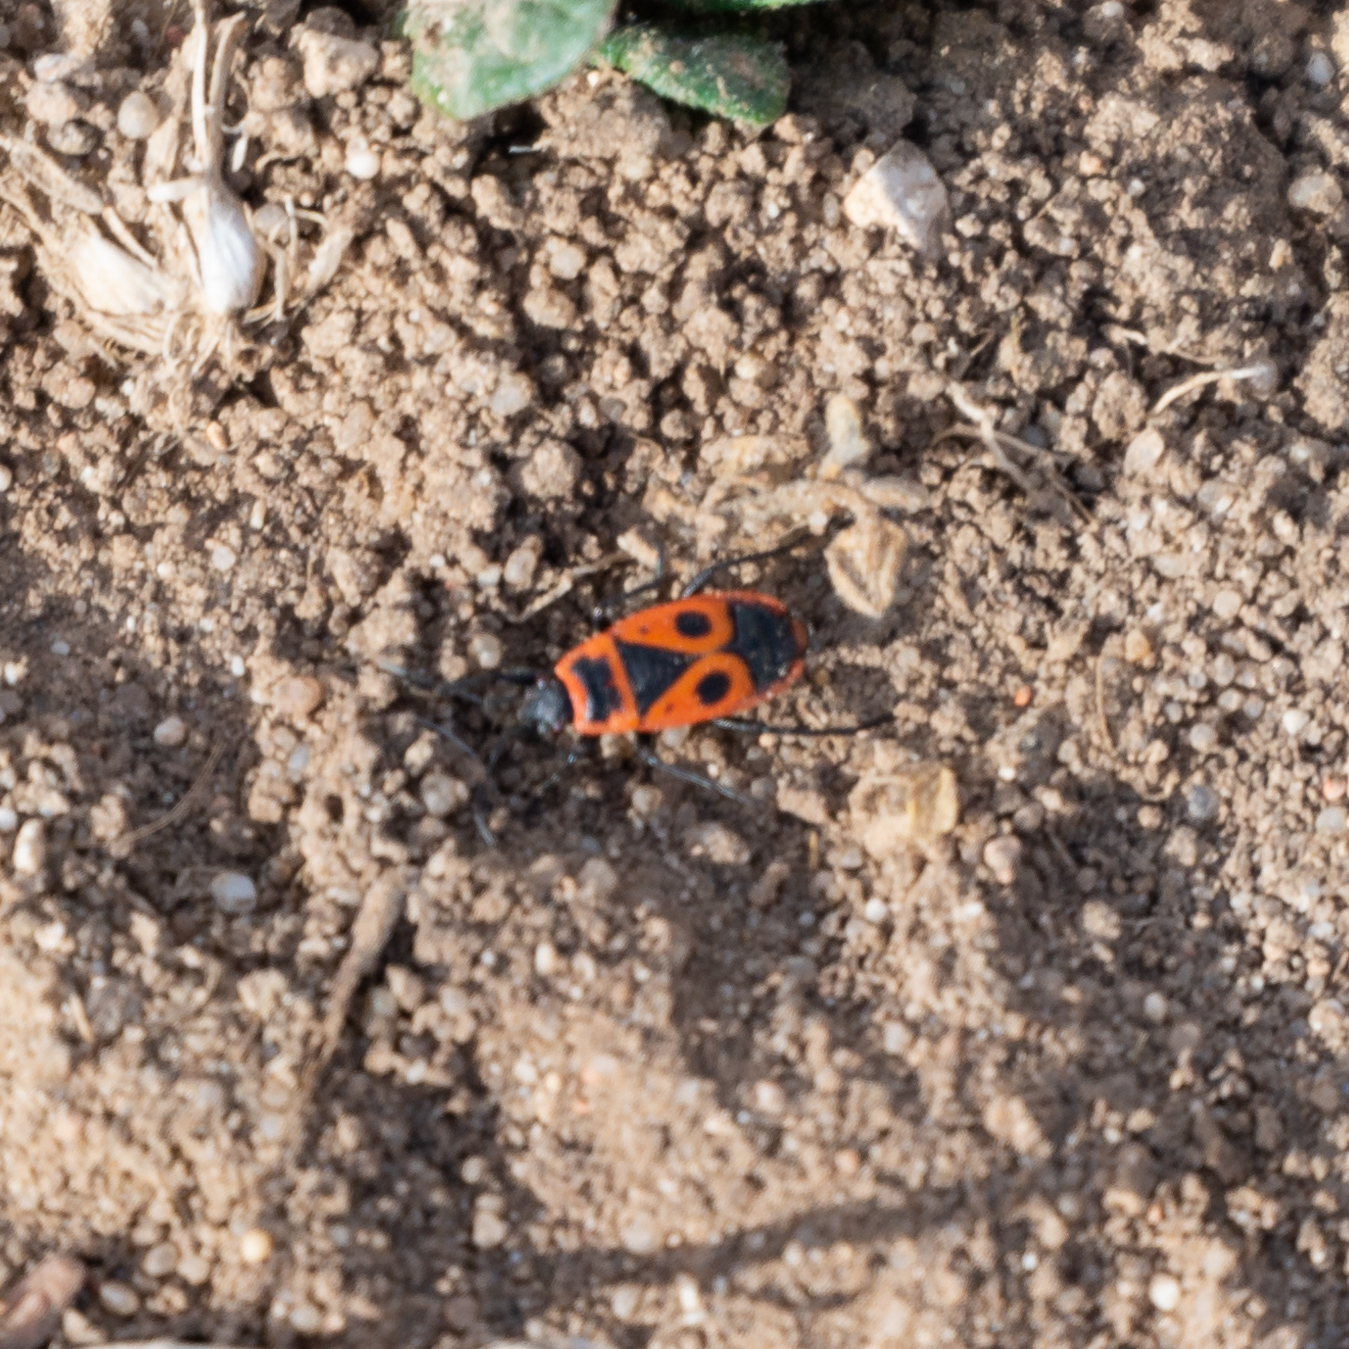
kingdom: Animalia
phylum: Arthropoda
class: Insecta
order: Hemiptera
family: Pyrrhocoridae
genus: Pyrrhocoris
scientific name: Pyrrhocoris apterus
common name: Firebug
